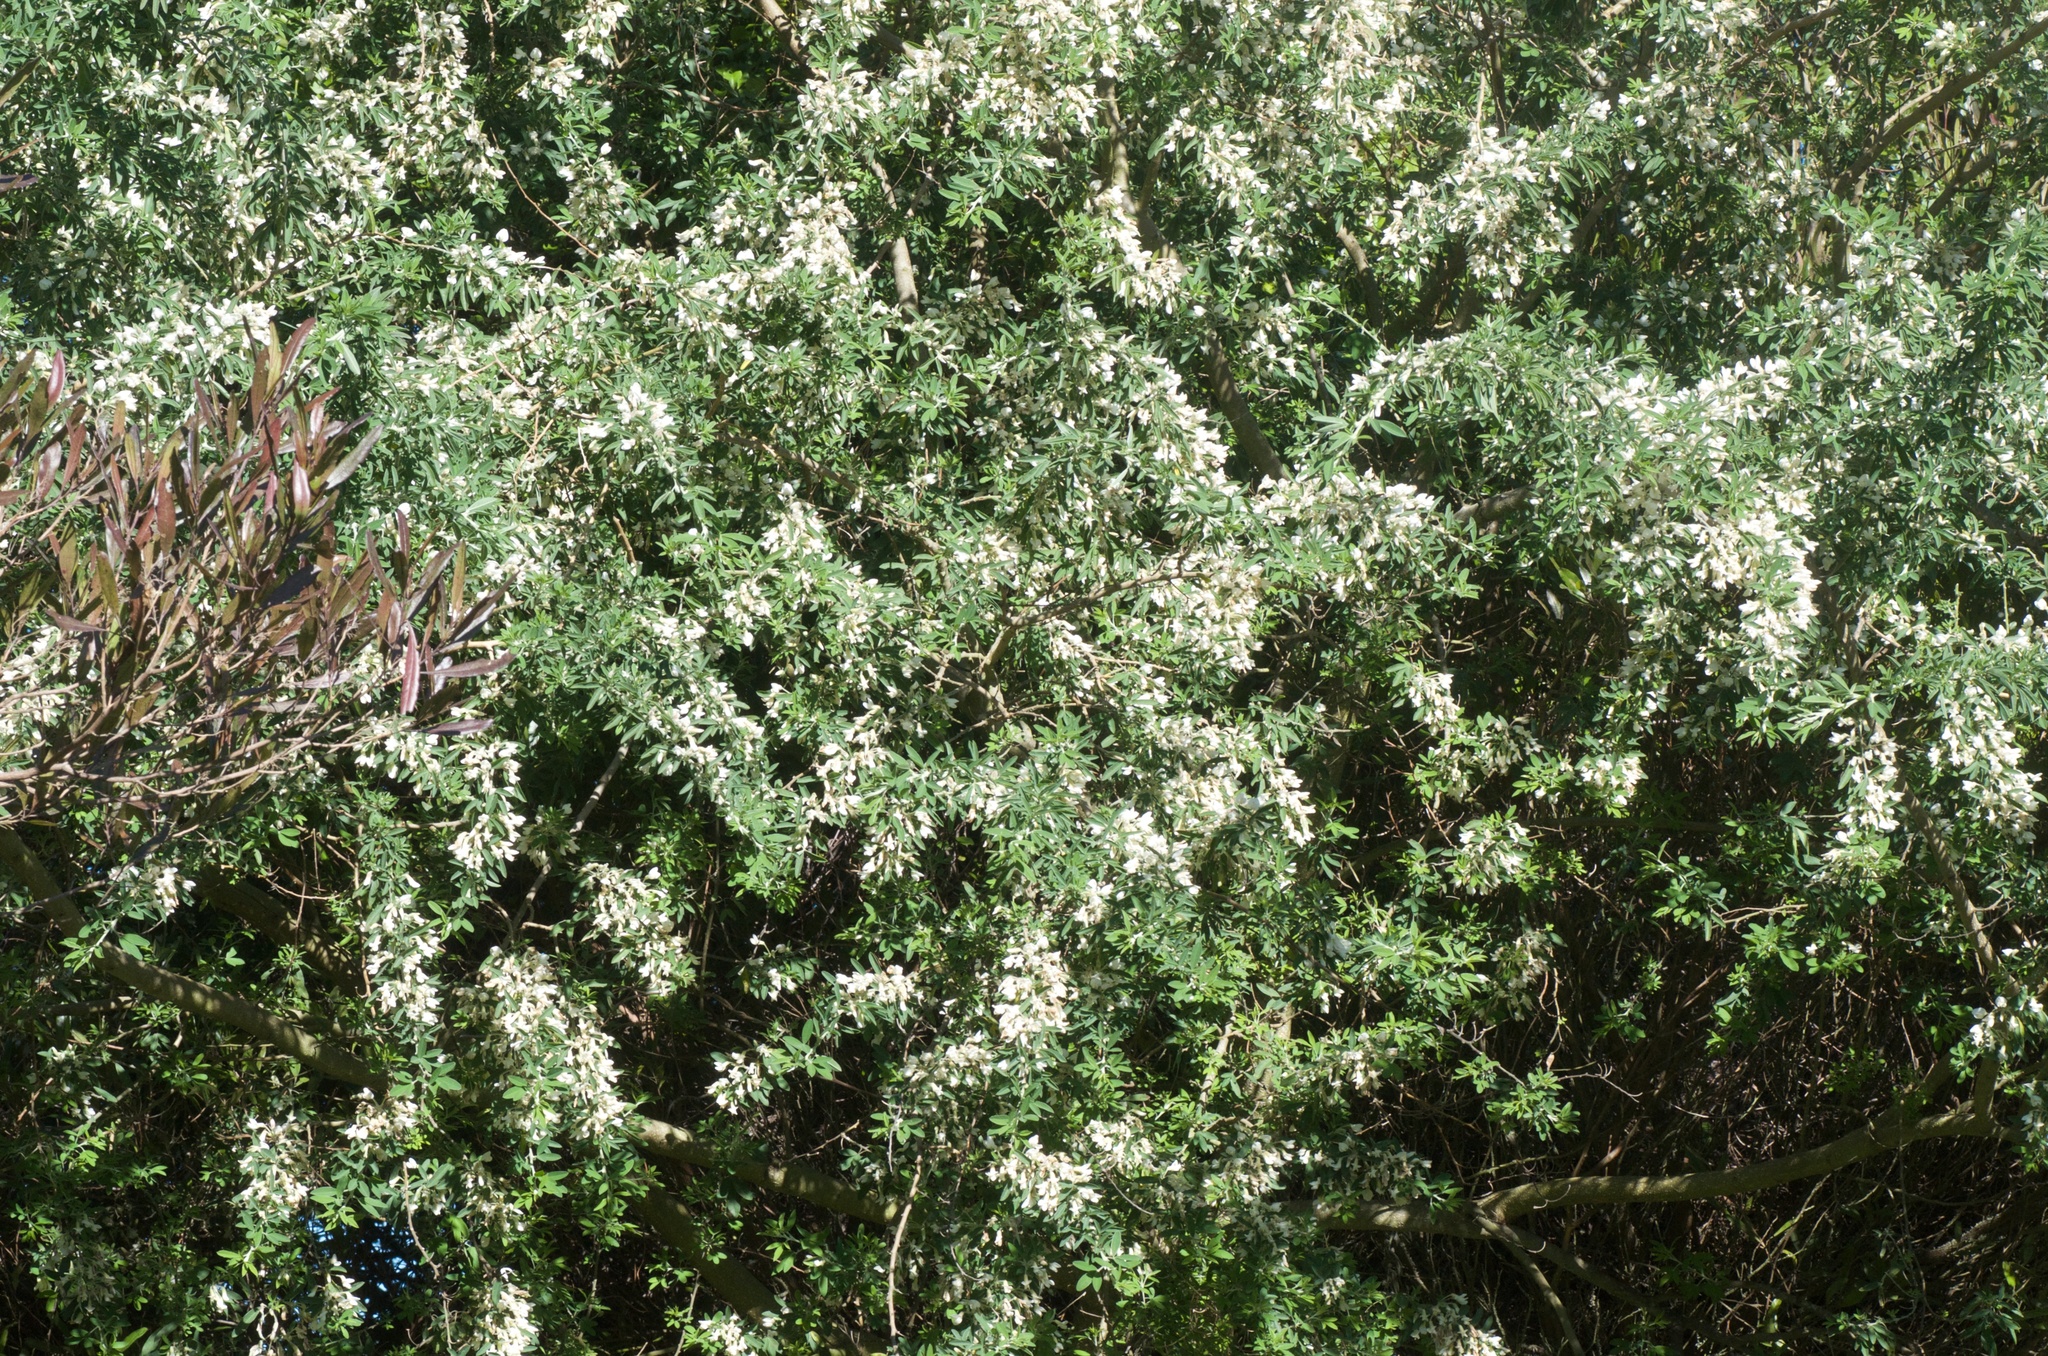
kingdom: Plantae
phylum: Tracheophyta
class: Magnoliopsida
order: Fabales
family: Fabaceae
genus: Chamaecytisus
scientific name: Chamaecytisus prolifer
